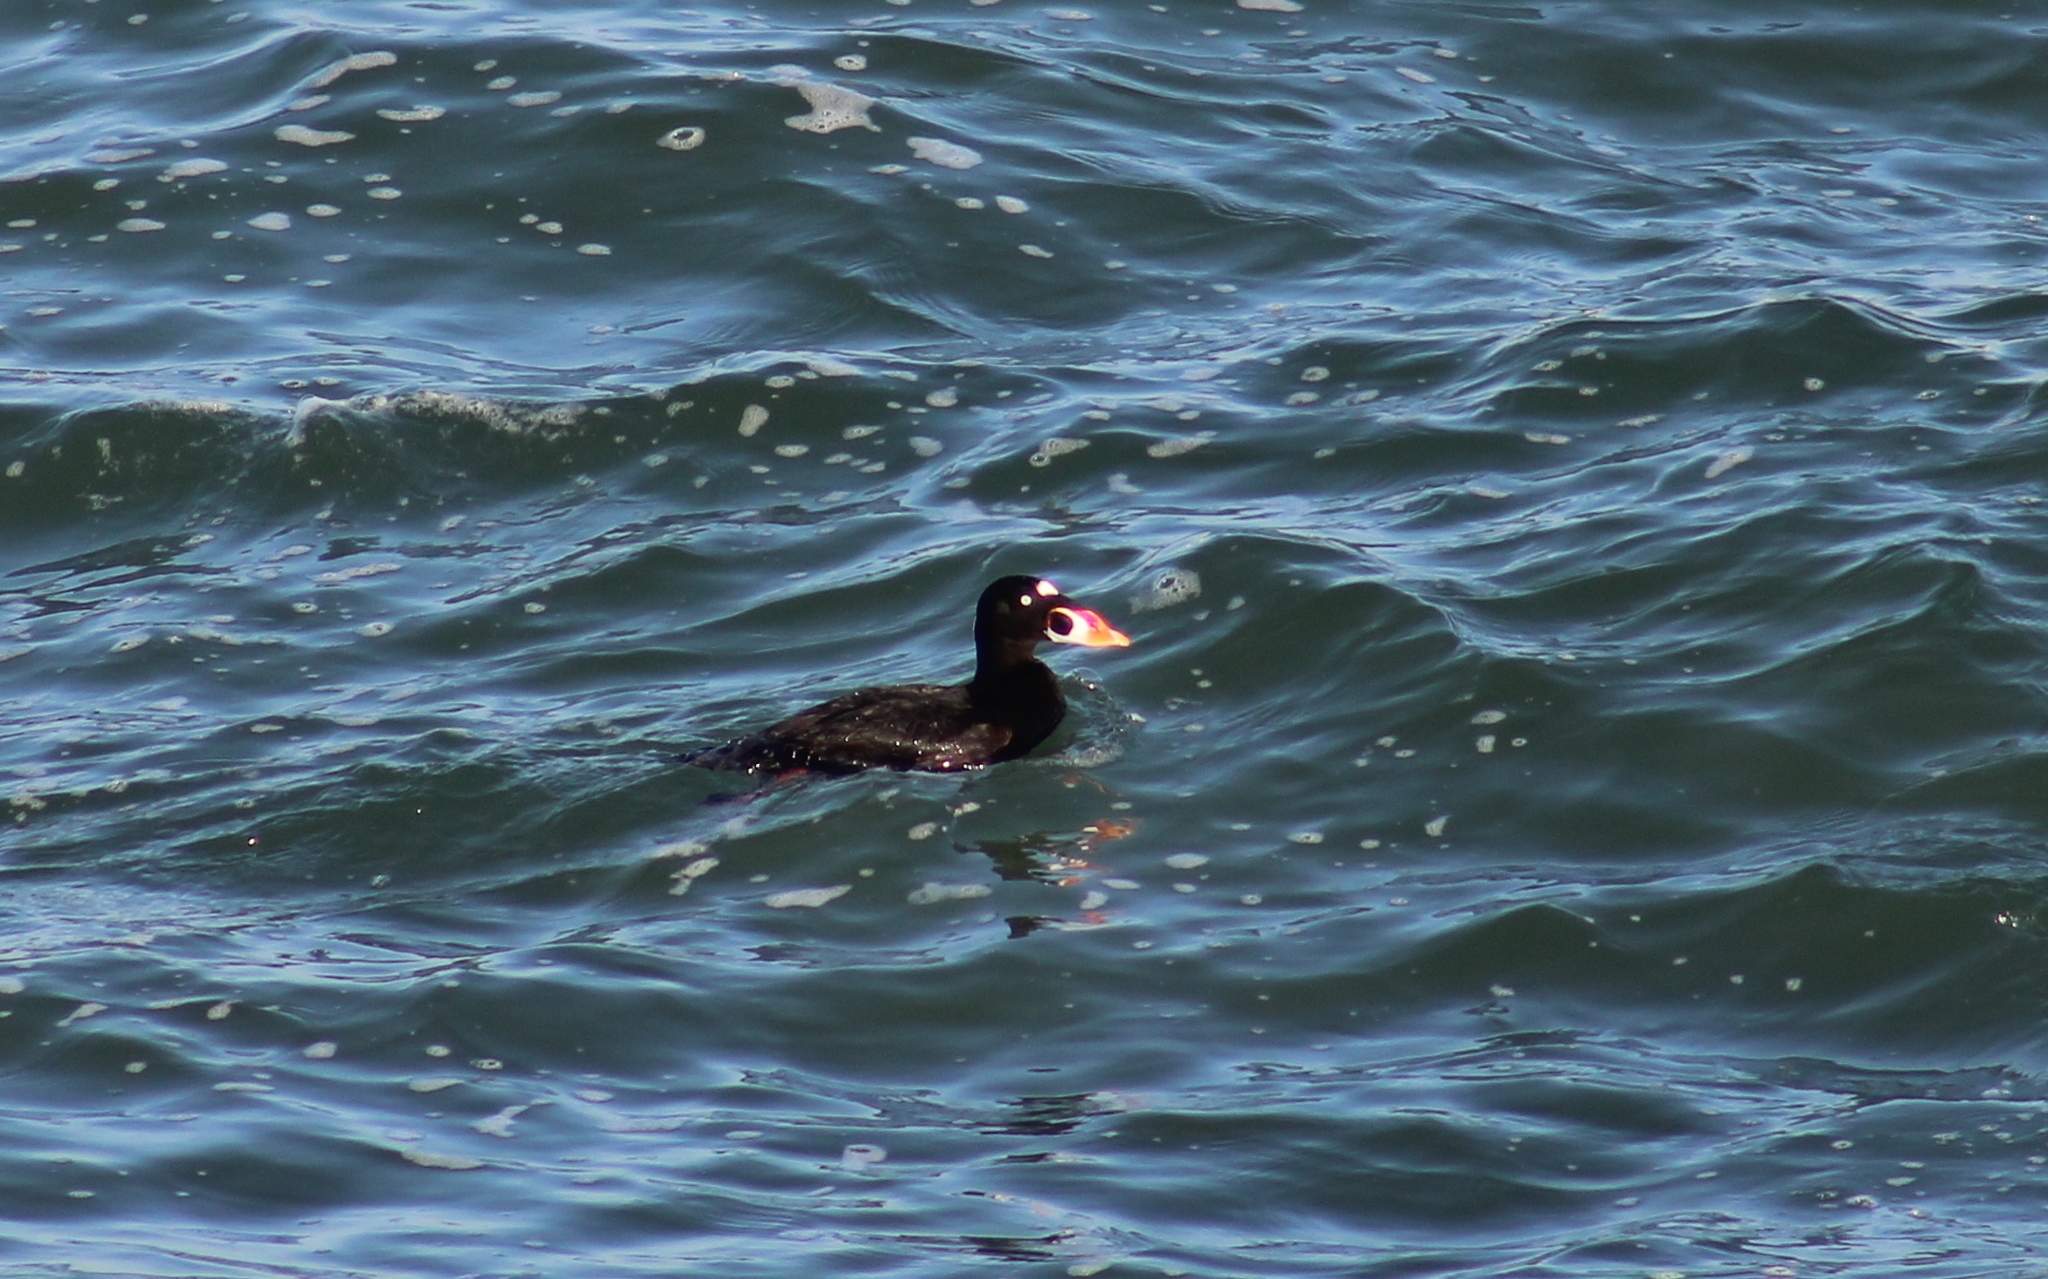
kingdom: Animalia
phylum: Chordata
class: Aves
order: Anseriformes
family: Anatidae
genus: Melanitta
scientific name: Melanitta perspicillata
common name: Surf scoter
